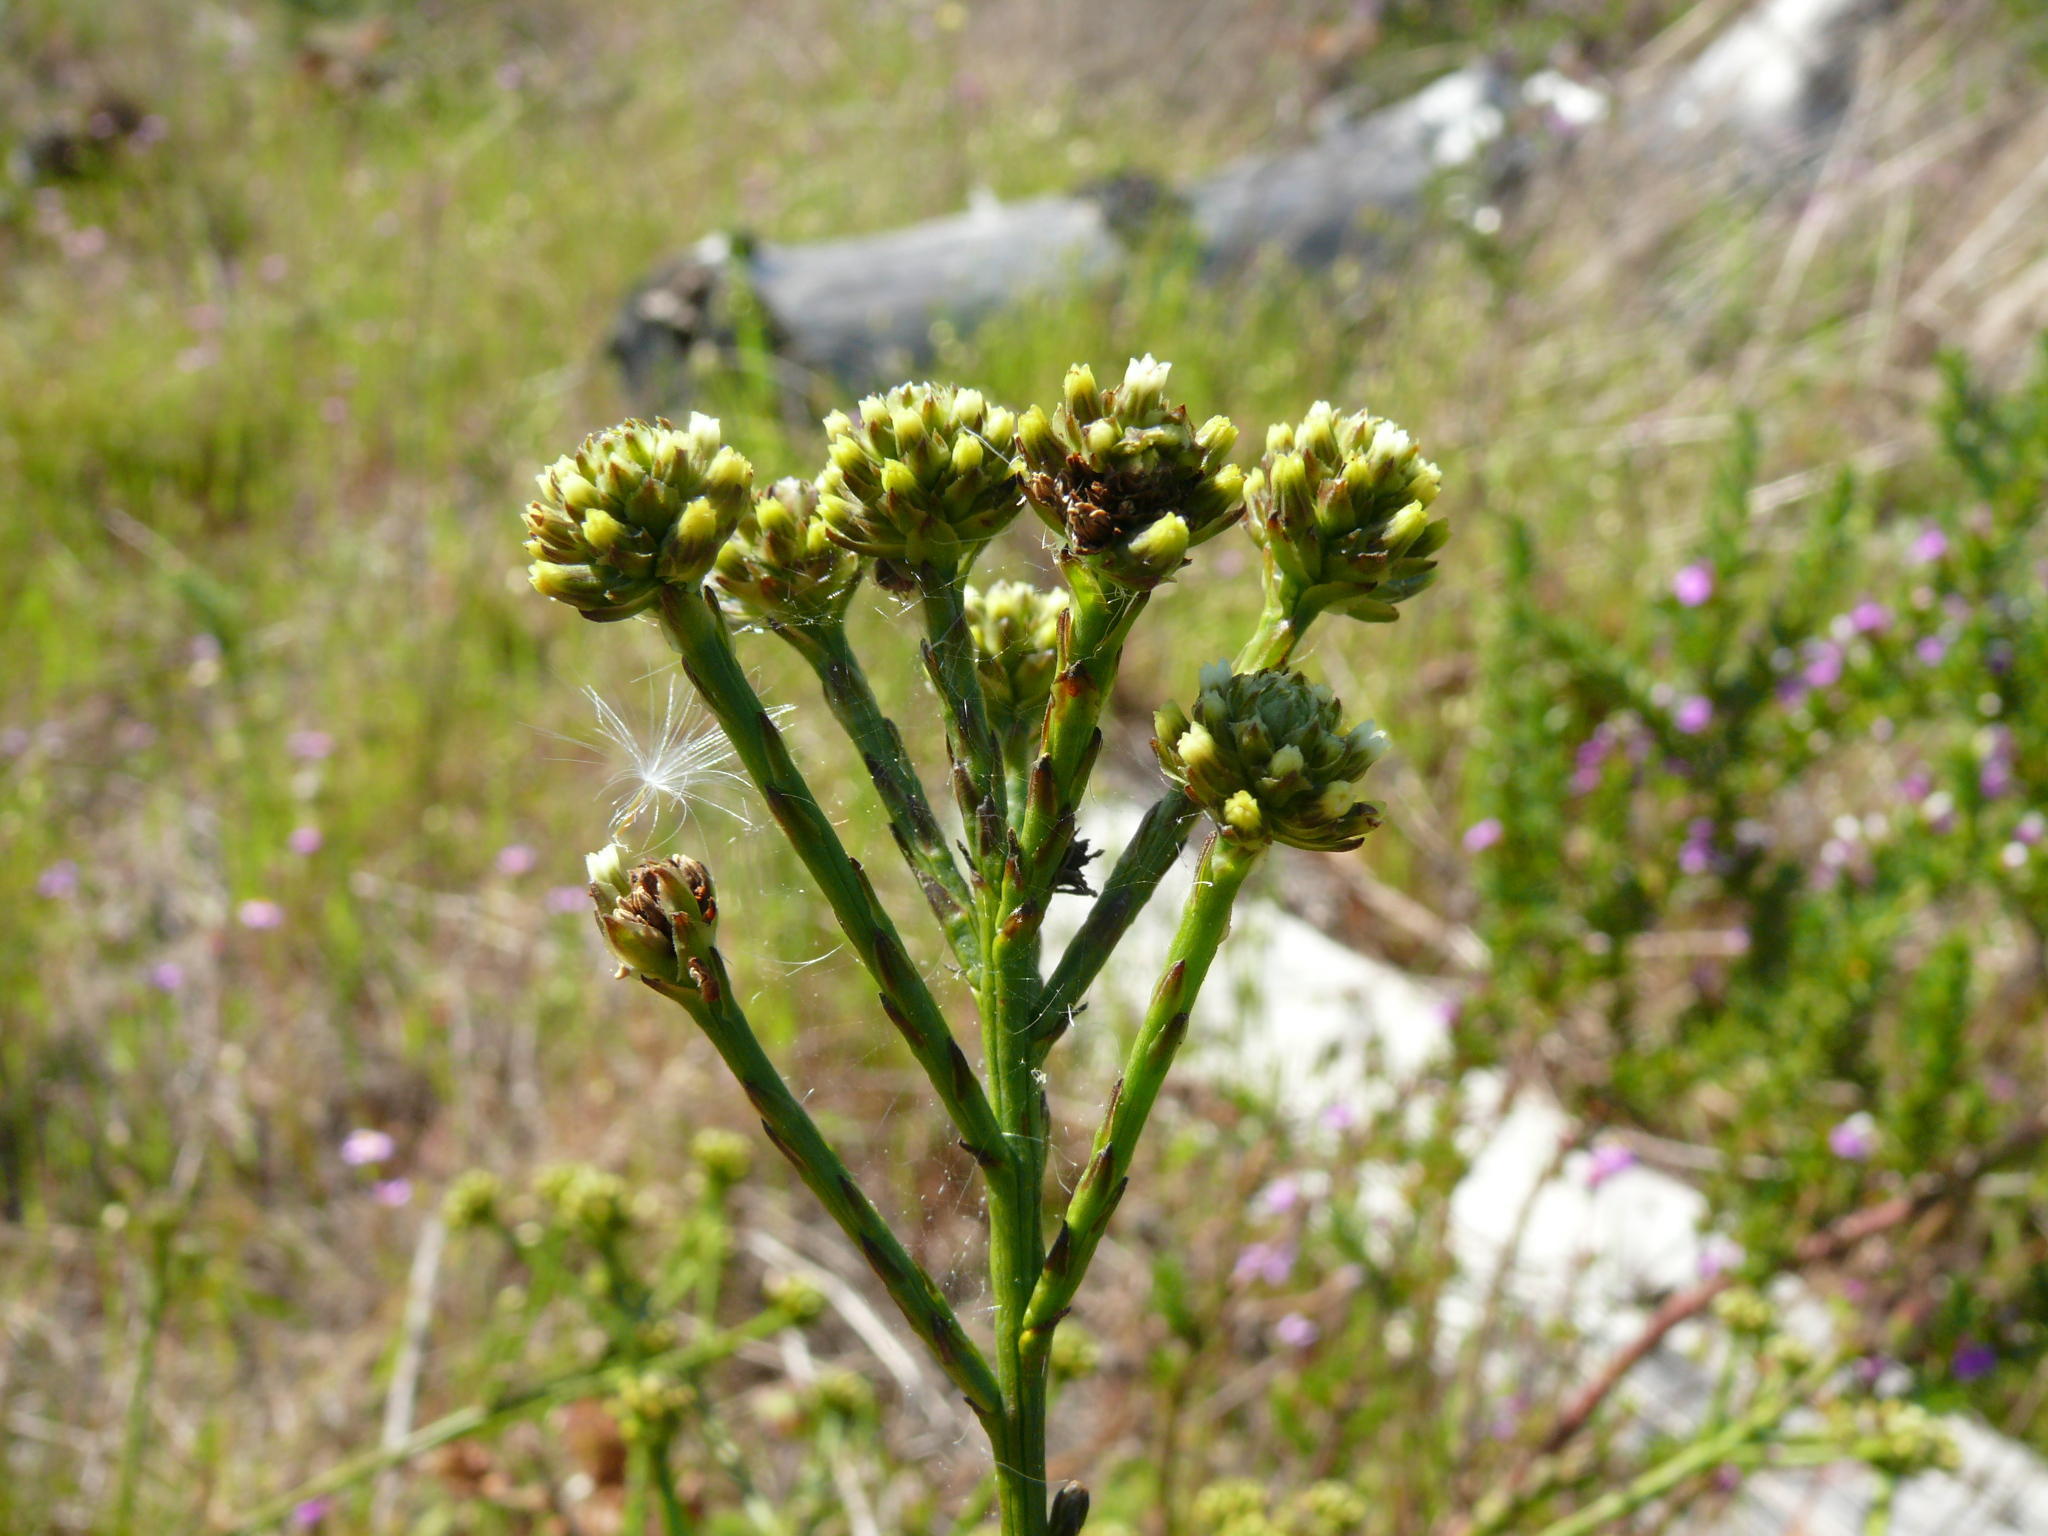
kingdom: Plantae
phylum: Tracheophyta
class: Magnoliopsida
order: Santalales
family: Thesiaceae
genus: Thesium
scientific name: Thesium aggregatum
